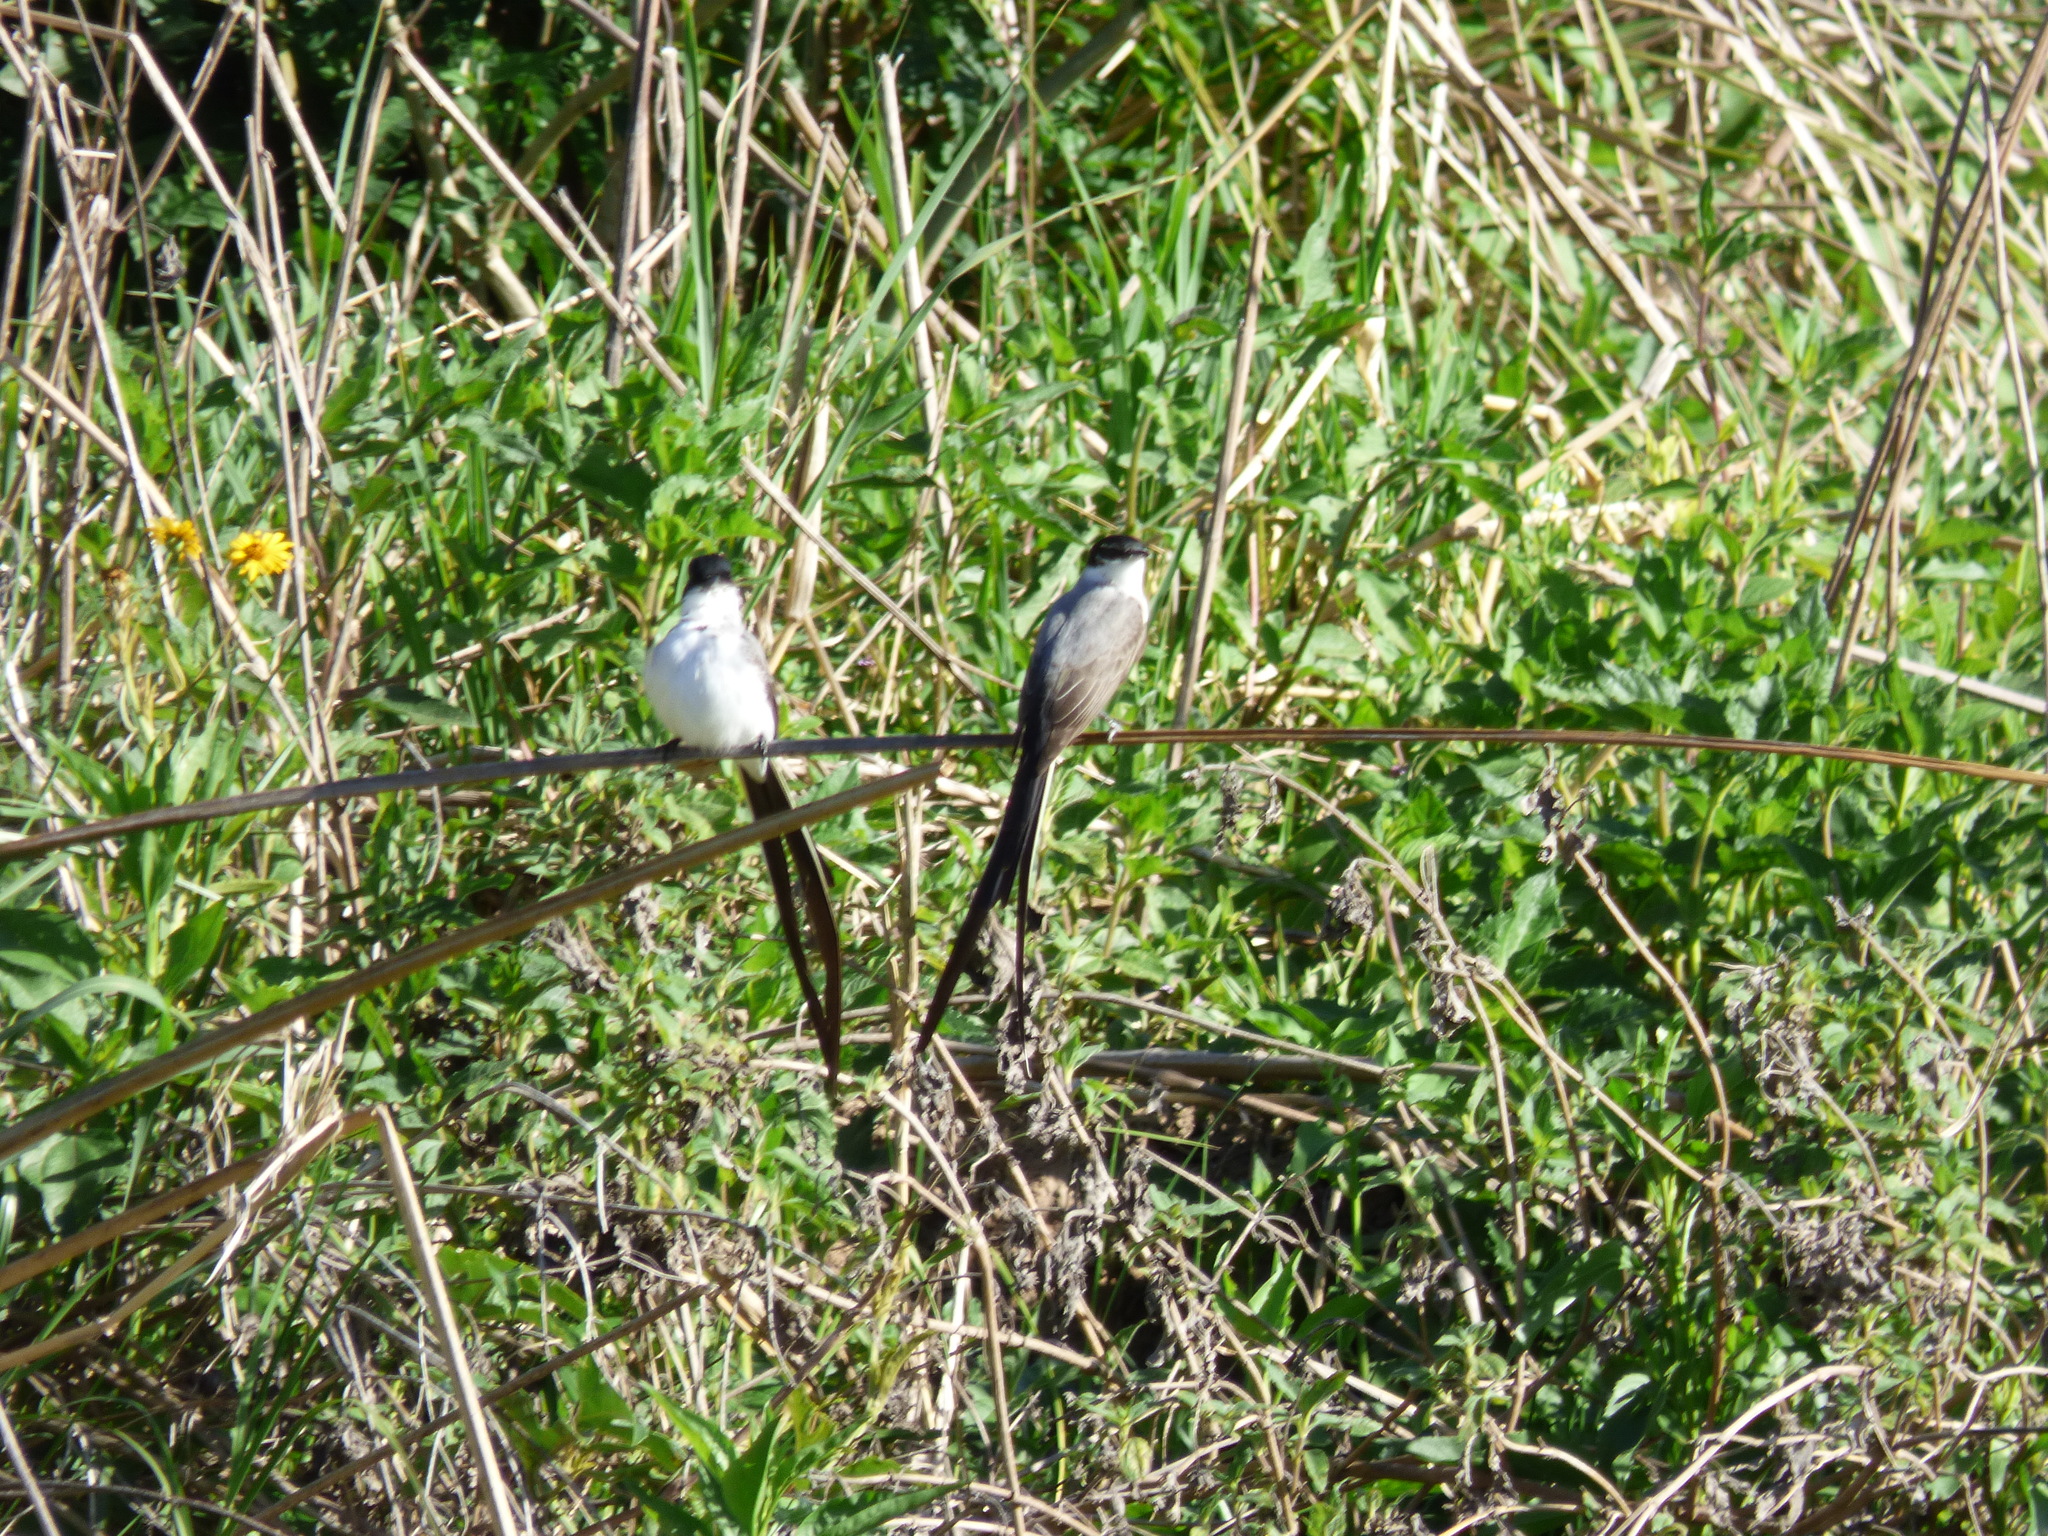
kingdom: Animalia
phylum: Chordata
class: Aves
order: Passeriformes
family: Tyrannidae
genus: Tyrannus
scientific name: Tyrannus savana
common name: Fork-tailed flycatcher
